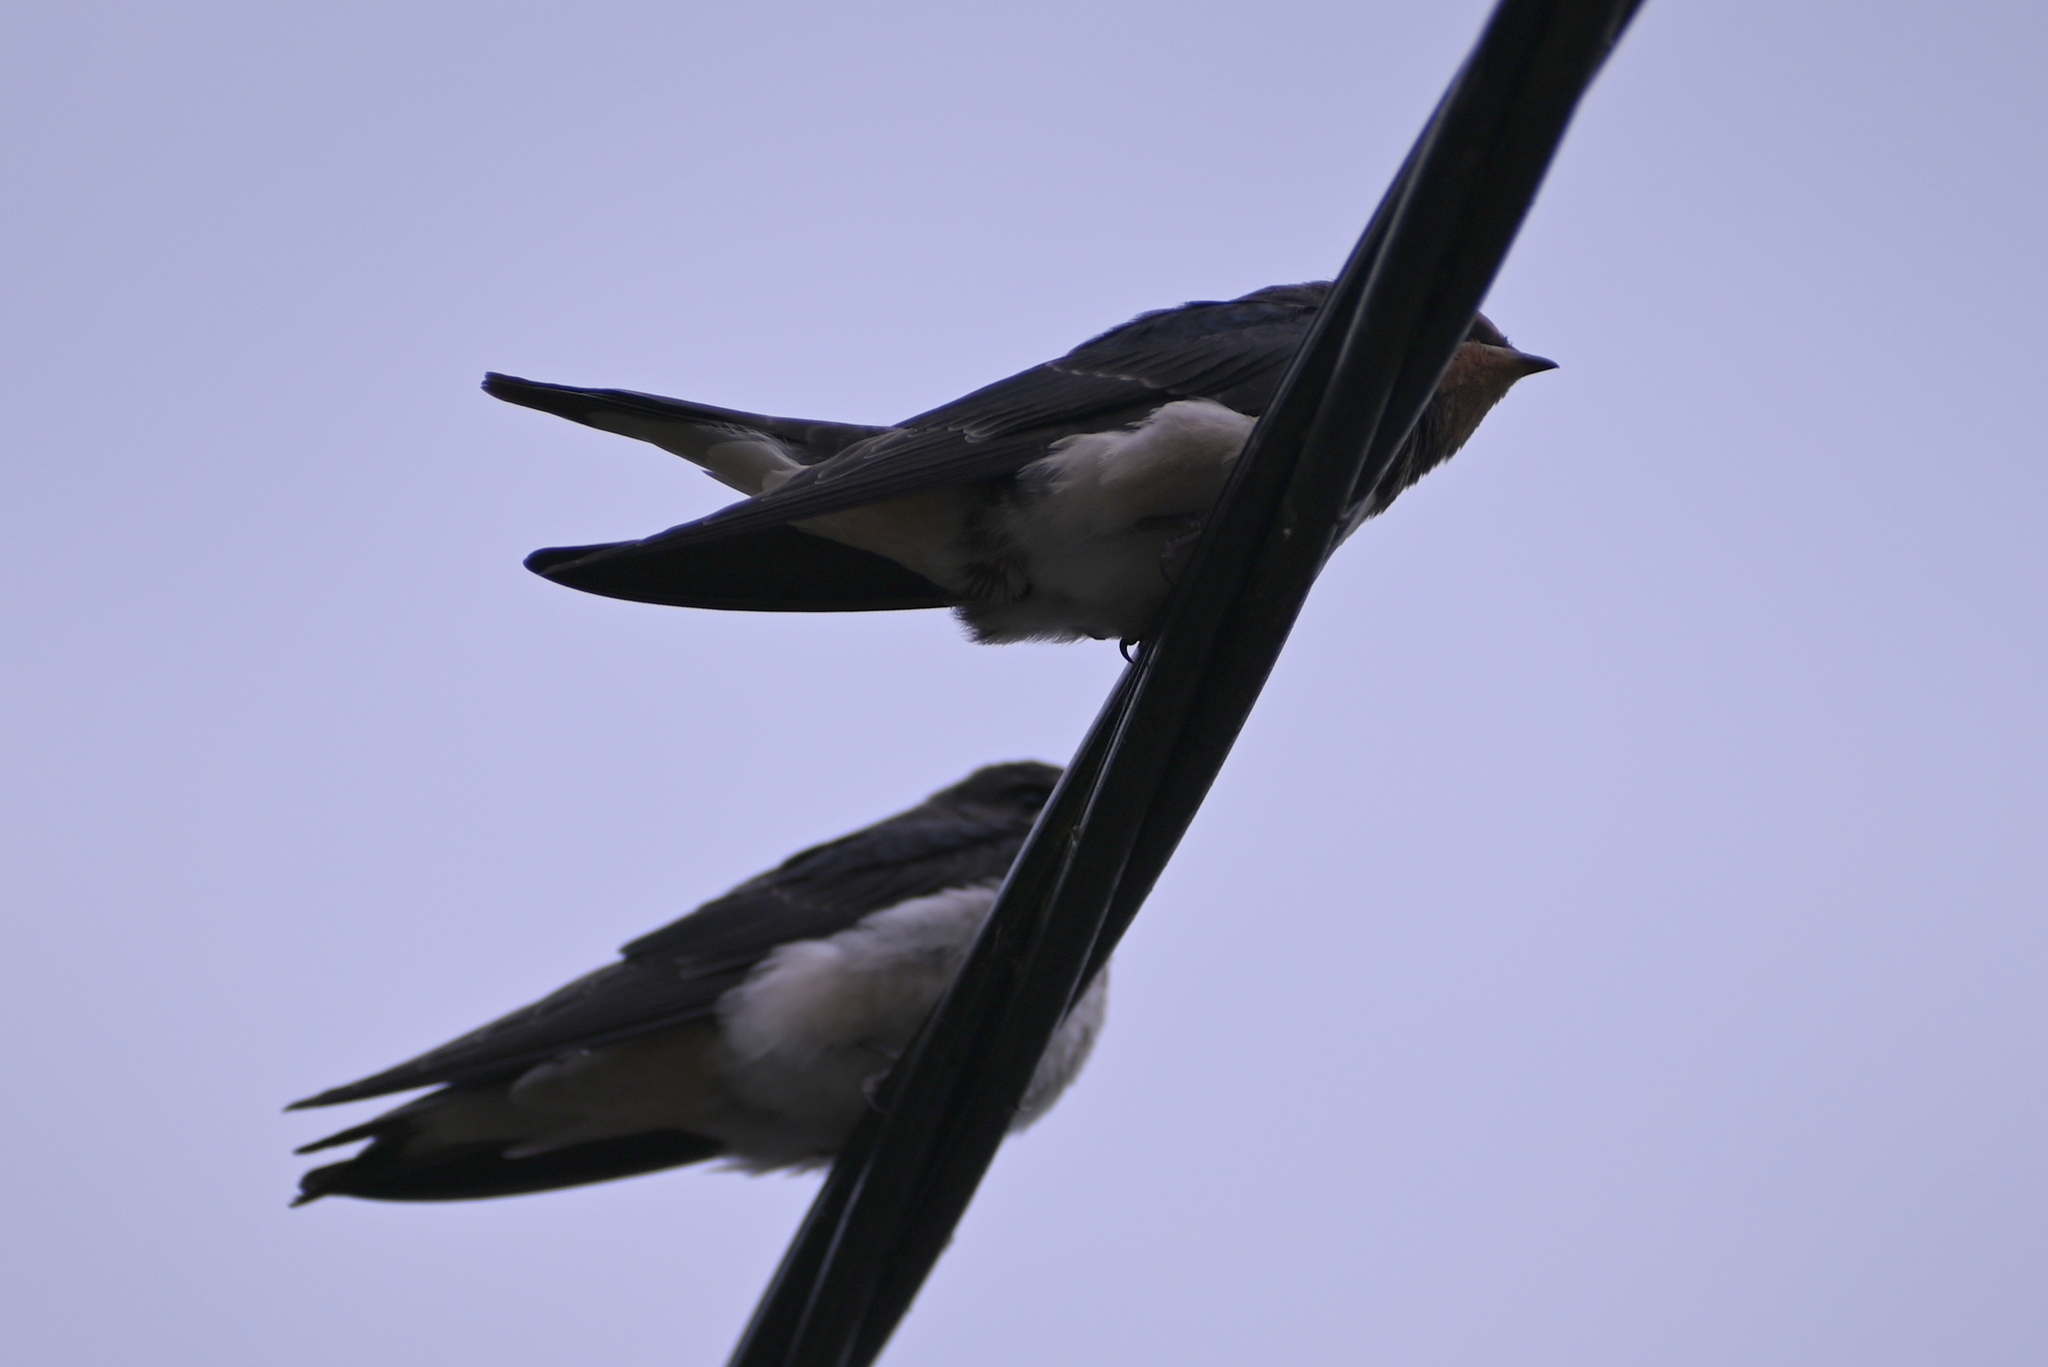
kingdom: Animalia
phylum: Chordata
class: Aves
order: Passeriformes
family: Hirundinidae
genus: Hirundo
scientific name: Hirundo rustica
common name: Barn swallow
